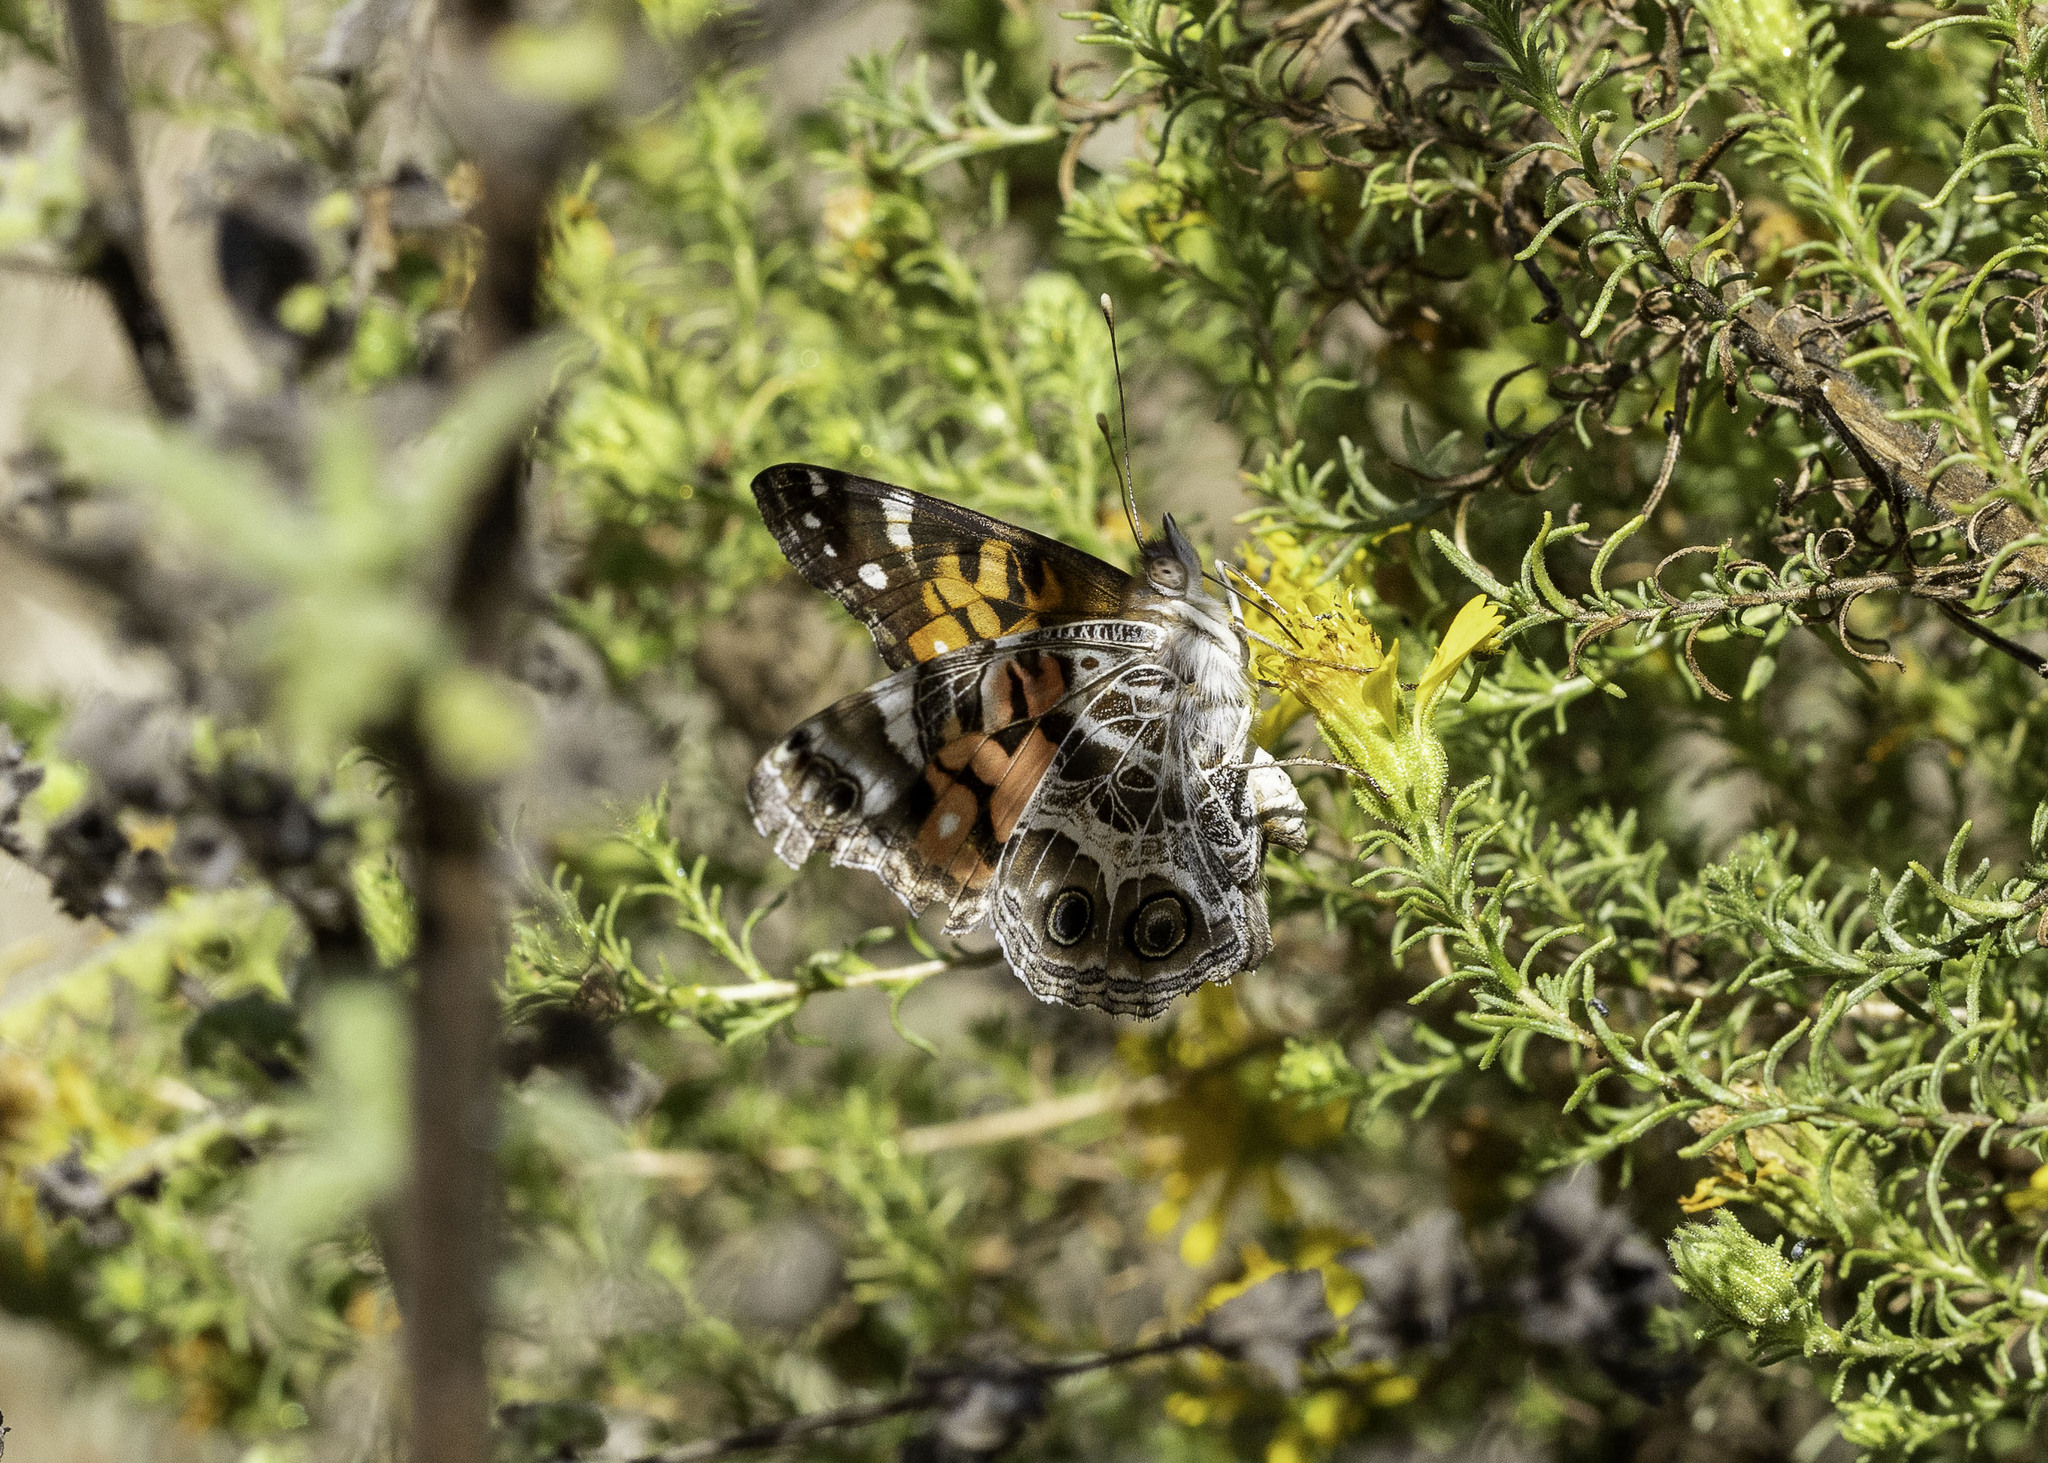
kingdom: Animalia
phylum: Arthropoda
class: Insecta
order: Lepidoptera
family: Nymphalidae
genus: Vanessa
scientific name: Vanessa virginiensis
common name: American lady
